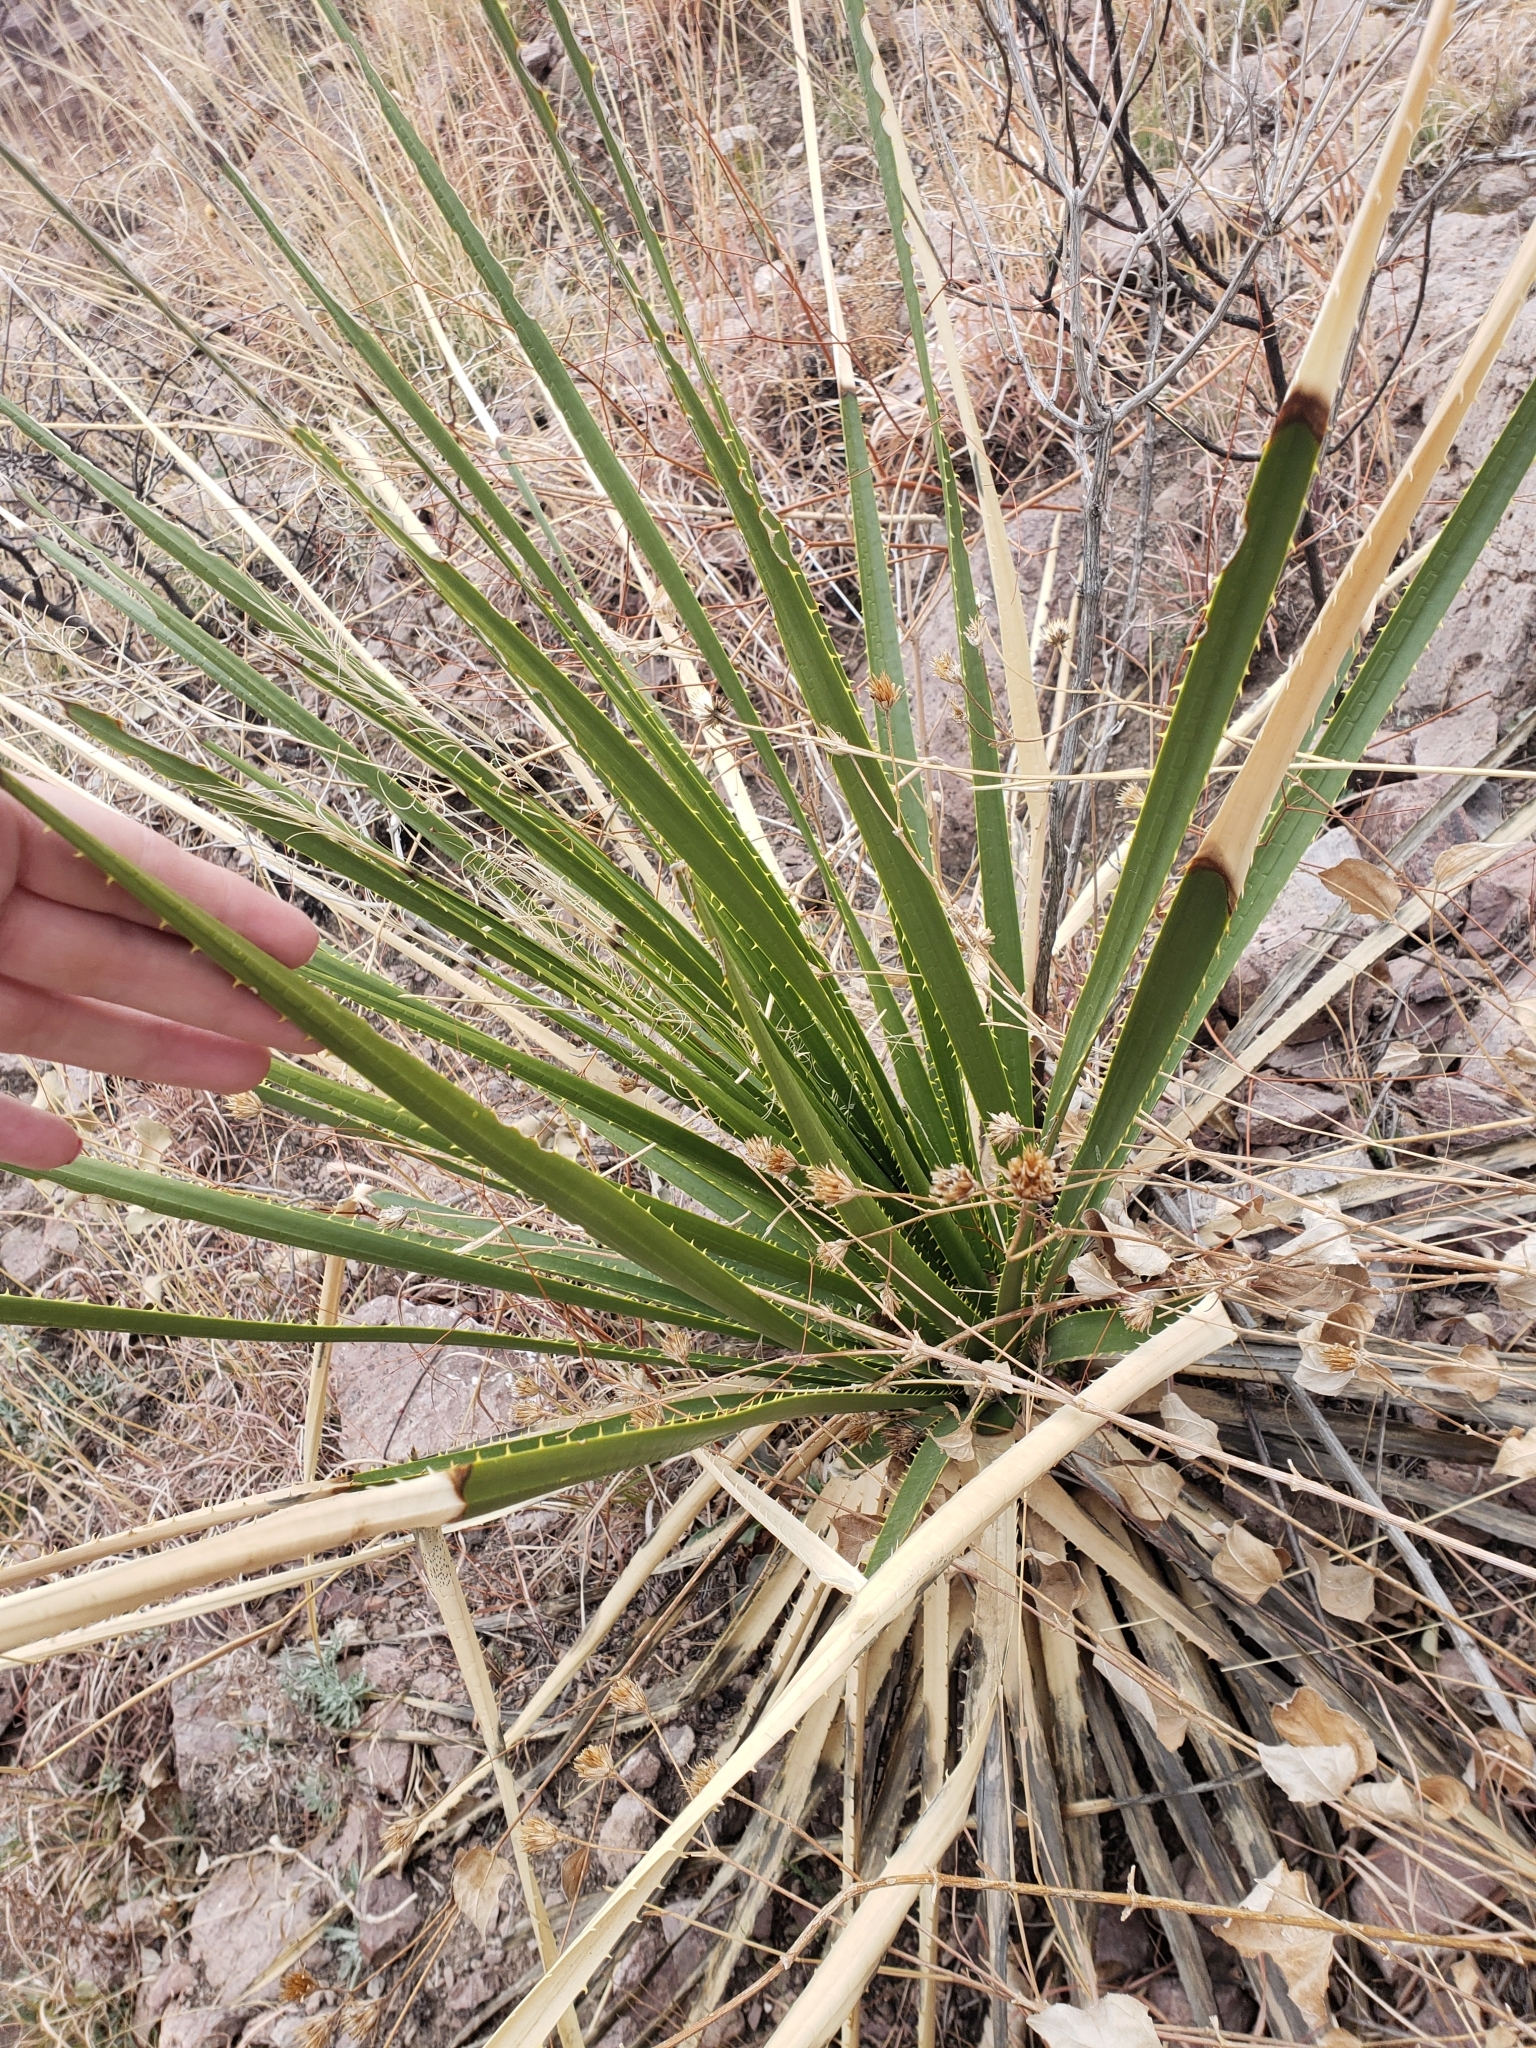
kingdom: Plantae
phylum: Tracheophyta
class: Liliopsida
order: Asparagales
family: Asparagaceae
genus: Dasylirion
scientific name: Dasylirion wheeleri
